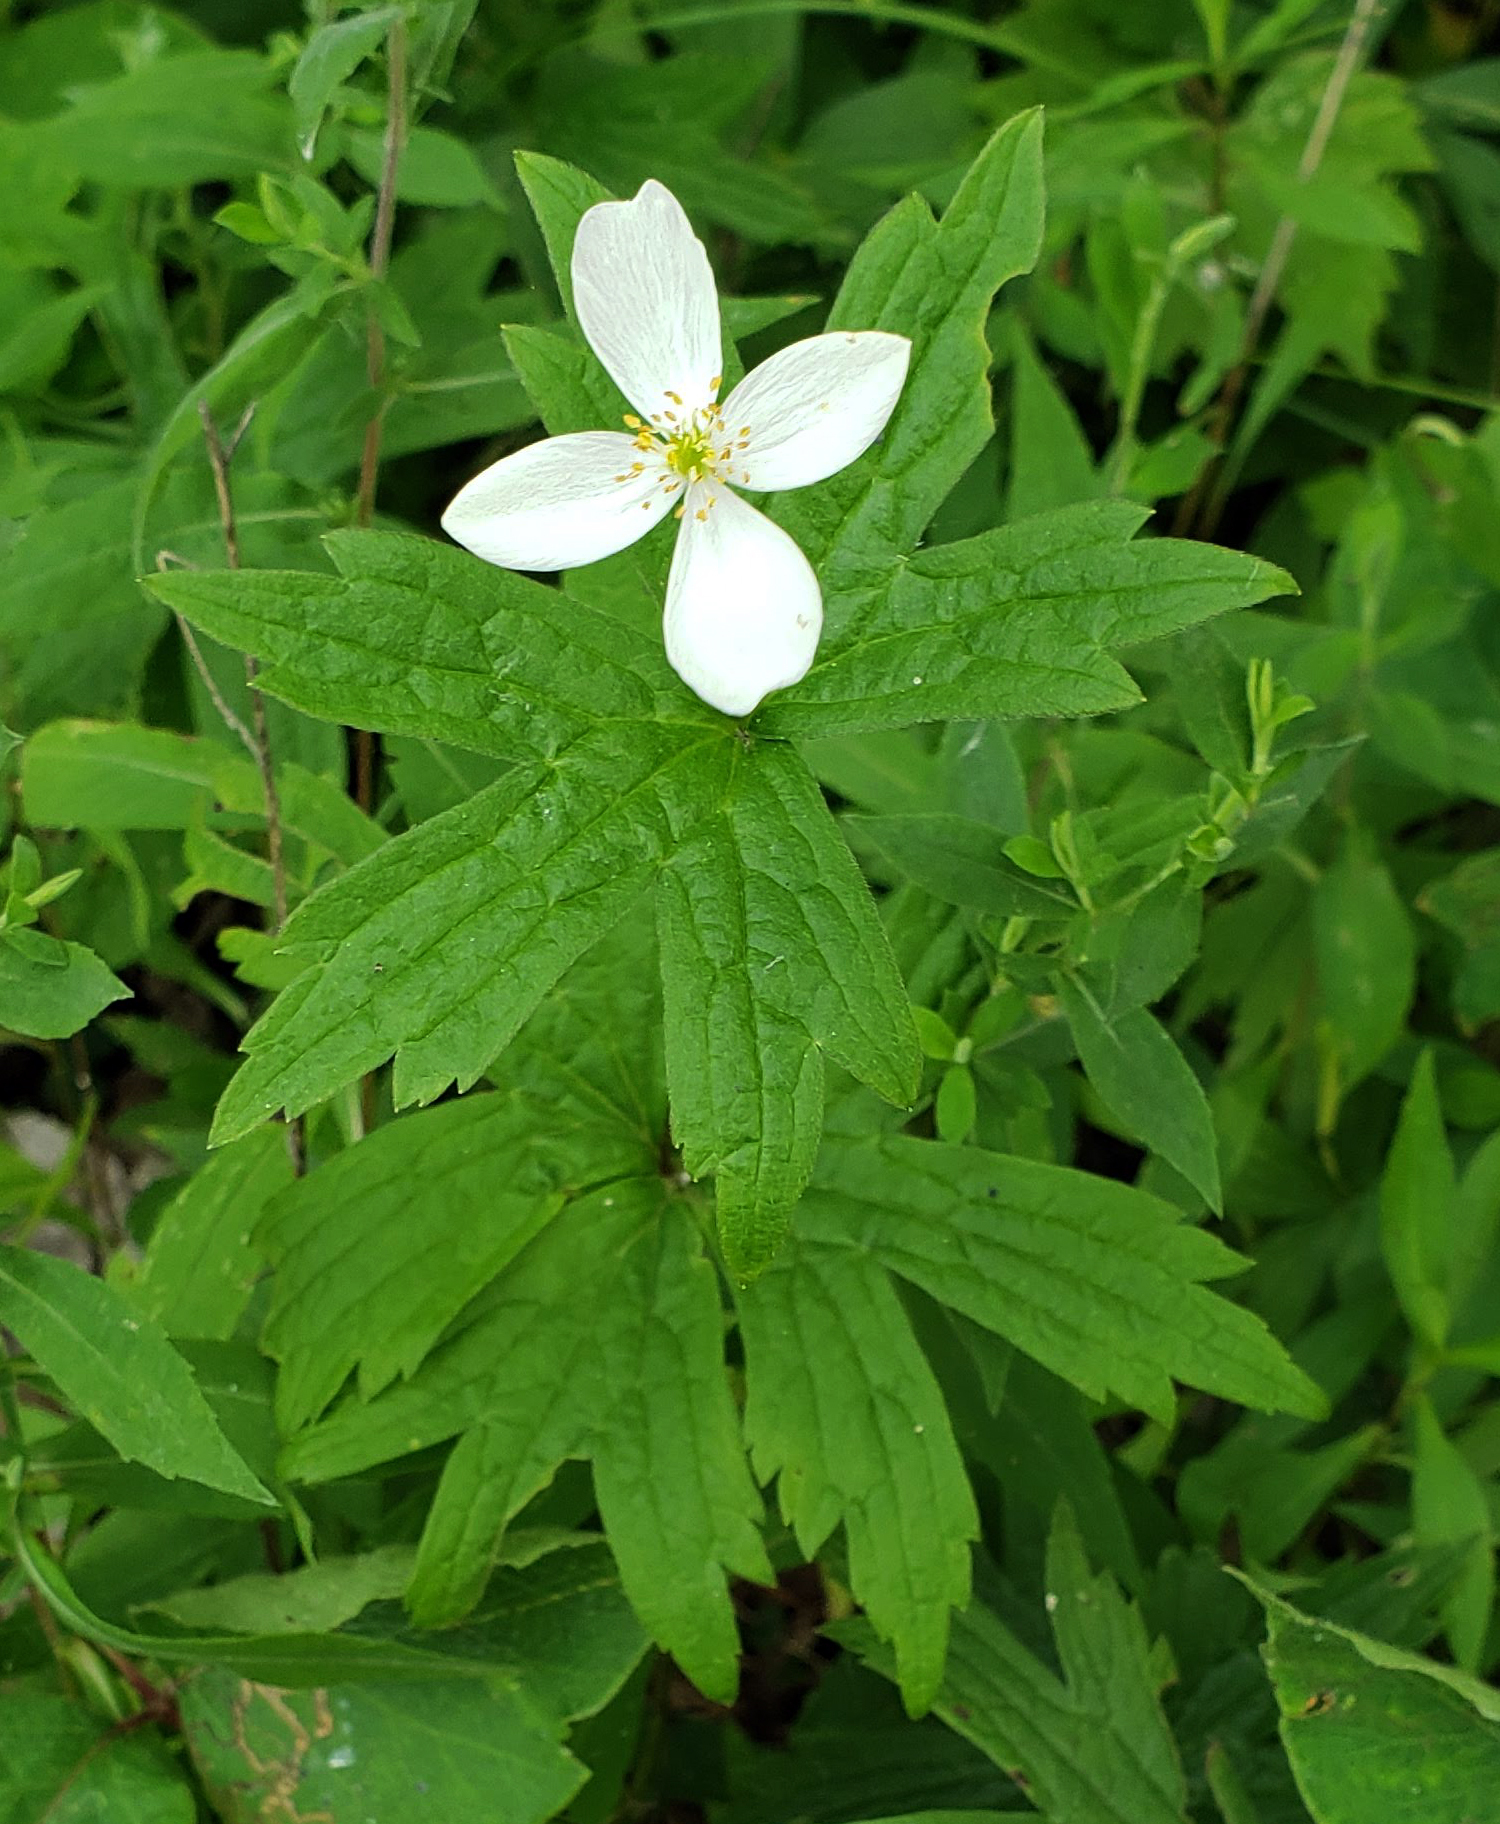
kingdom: Plantae
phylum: Tracheophyta
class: Magnoliopsida
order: Ranunculales
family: Ranunculaceae
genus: Anemonastrum
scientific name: Anemonastrum canadense
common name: Canada anemone
